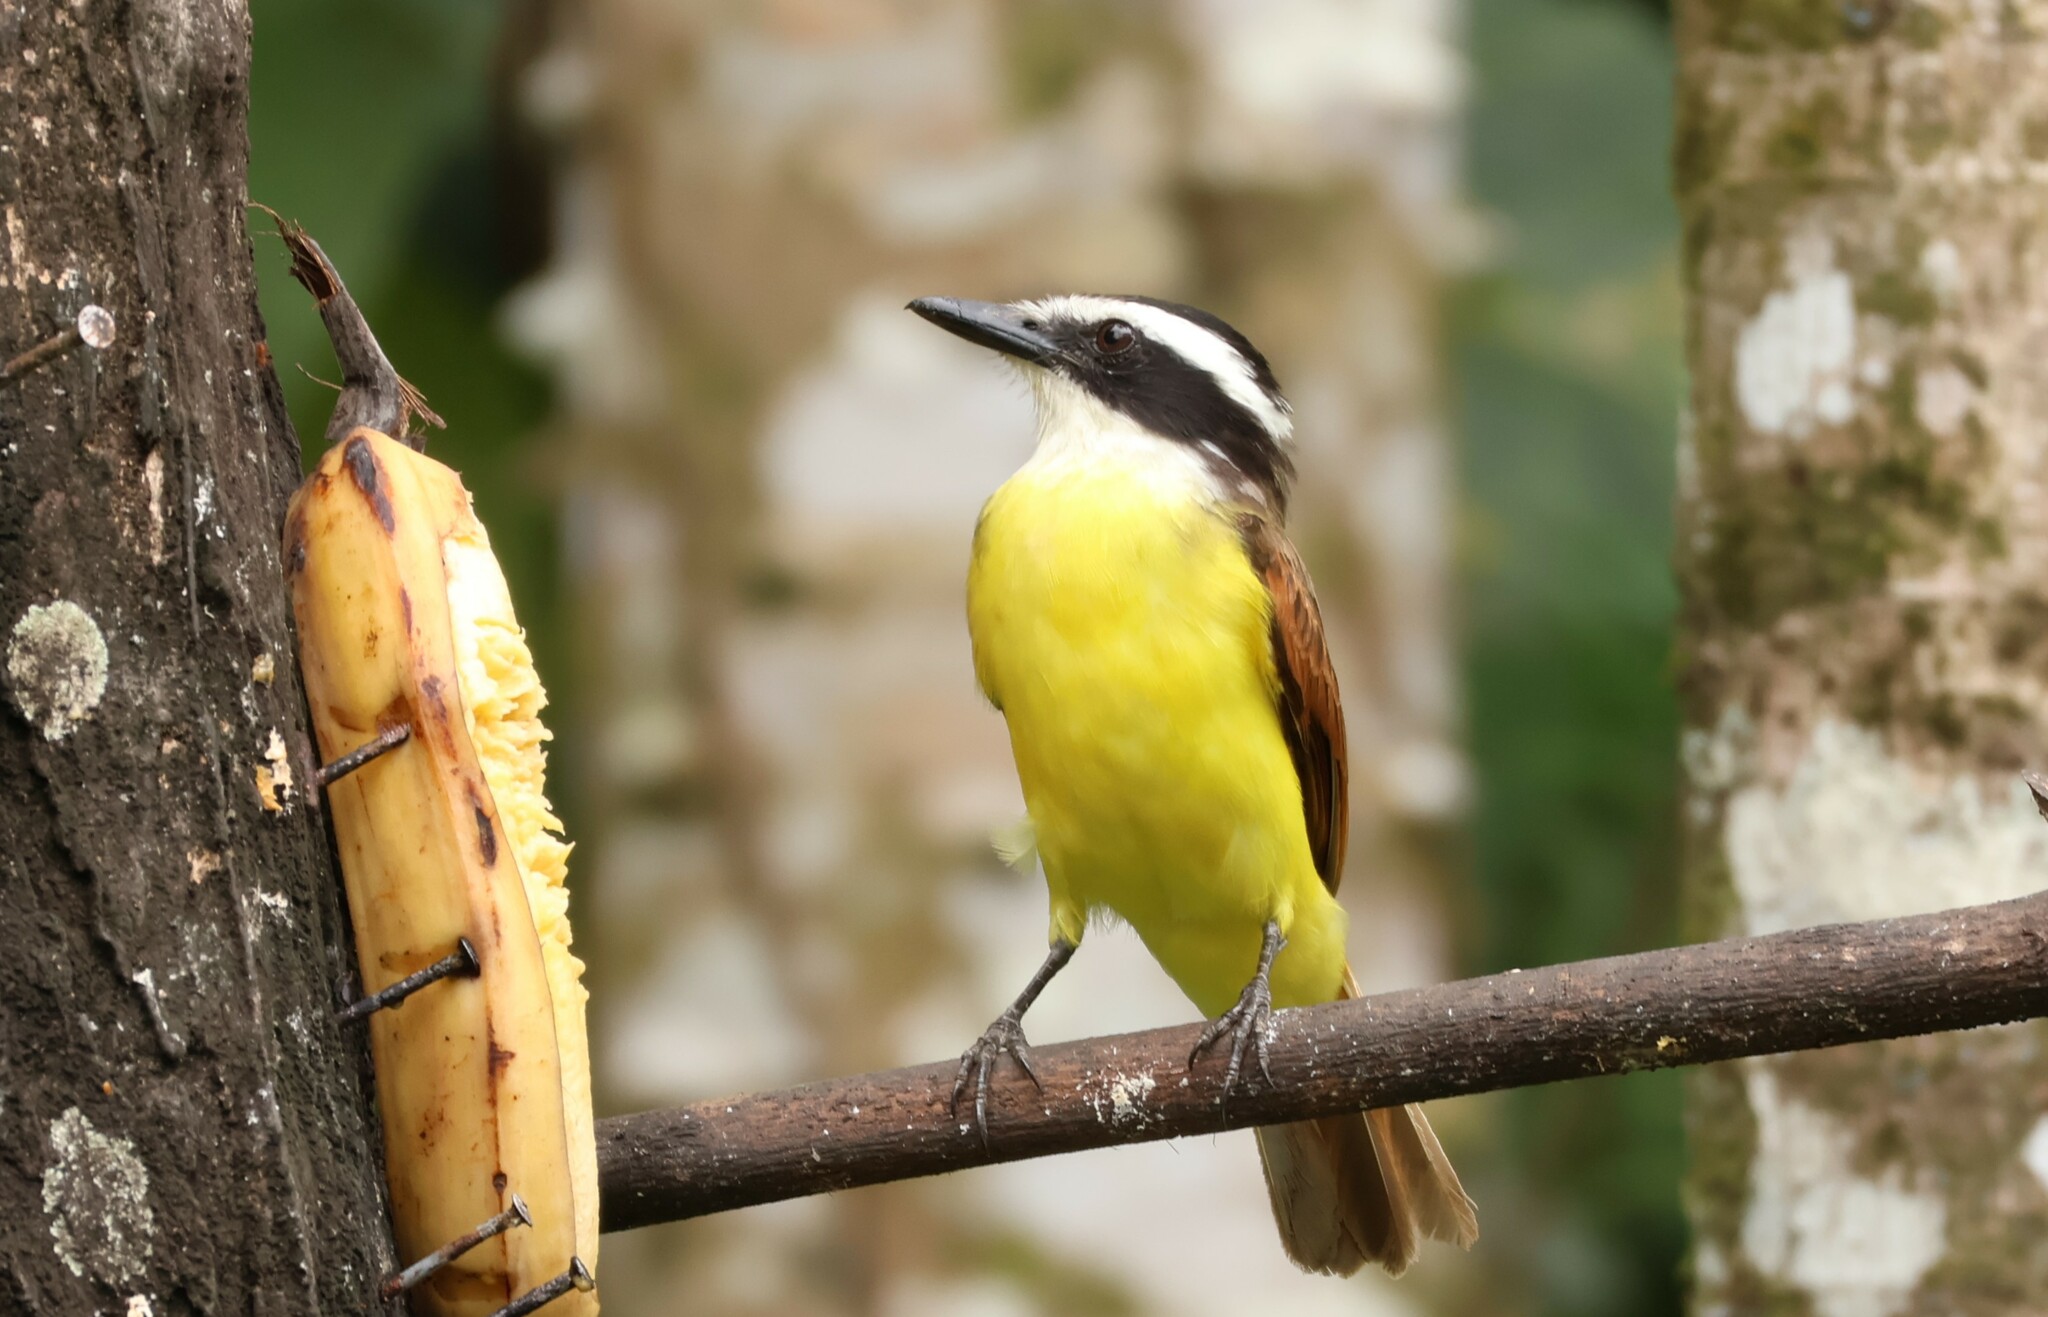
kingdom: Animalia
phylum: Chordata
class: Aves
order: Passeriformes
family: Tyrannidae
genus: Pitangus
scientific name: Pitangus sulphuratus
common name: Great kiskadee
